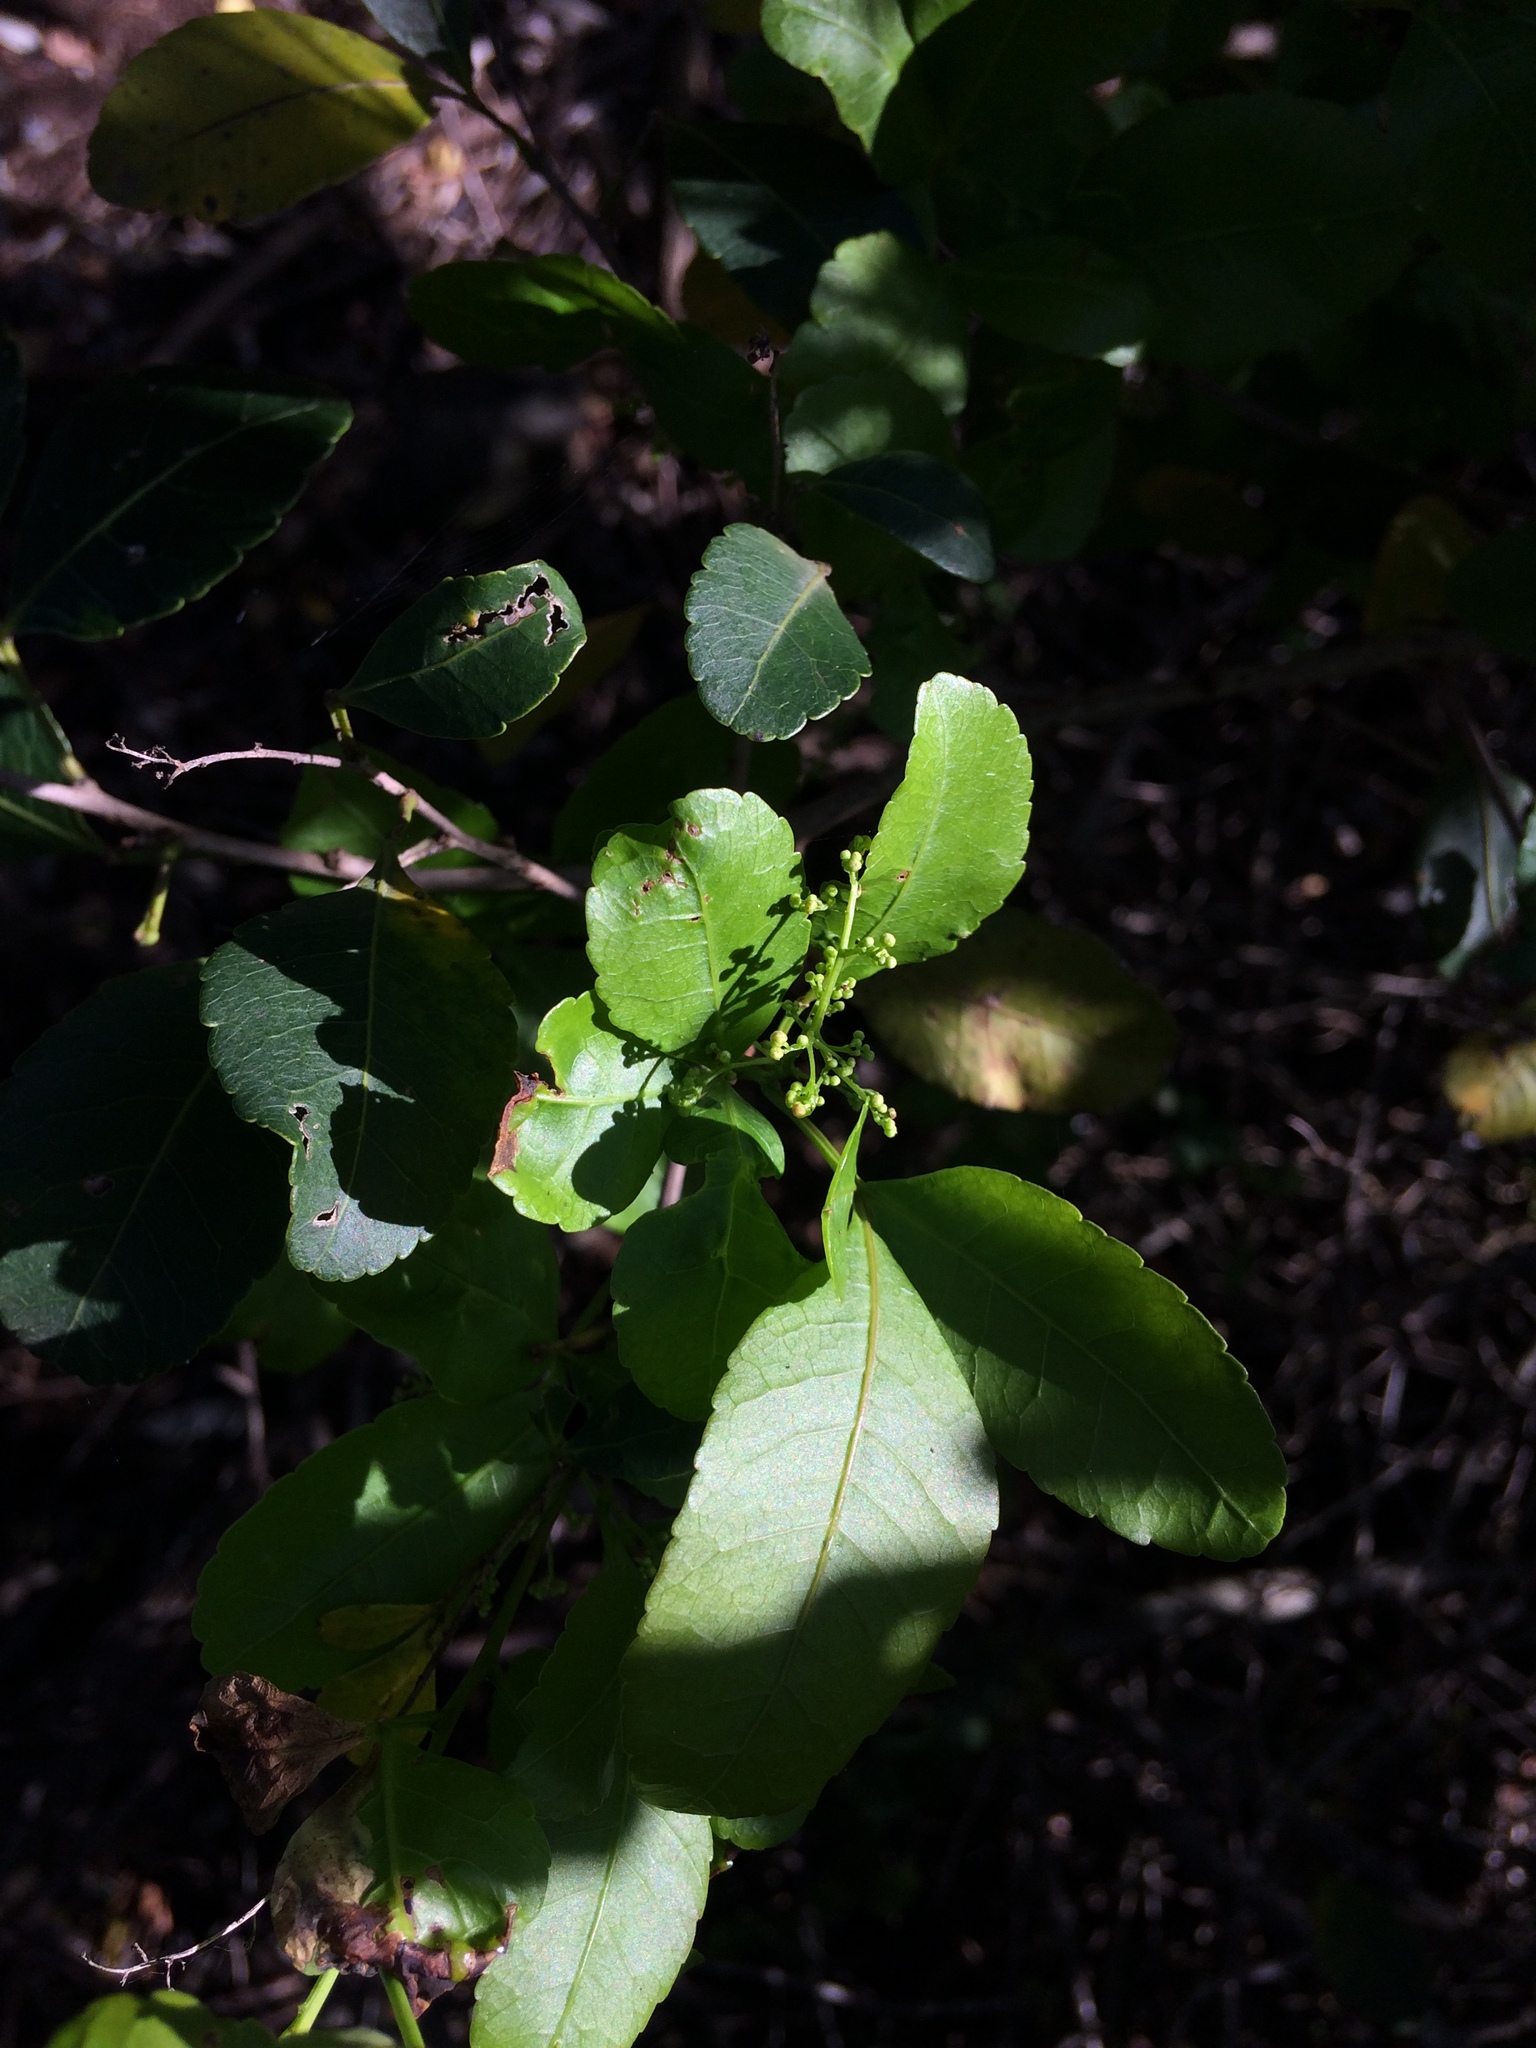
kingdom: Plantae
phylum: Tracheophyta
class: Magnoliopsida
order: Sapindales
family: Anacardiaceae
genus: Searsia
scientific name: Searsia natalensis
